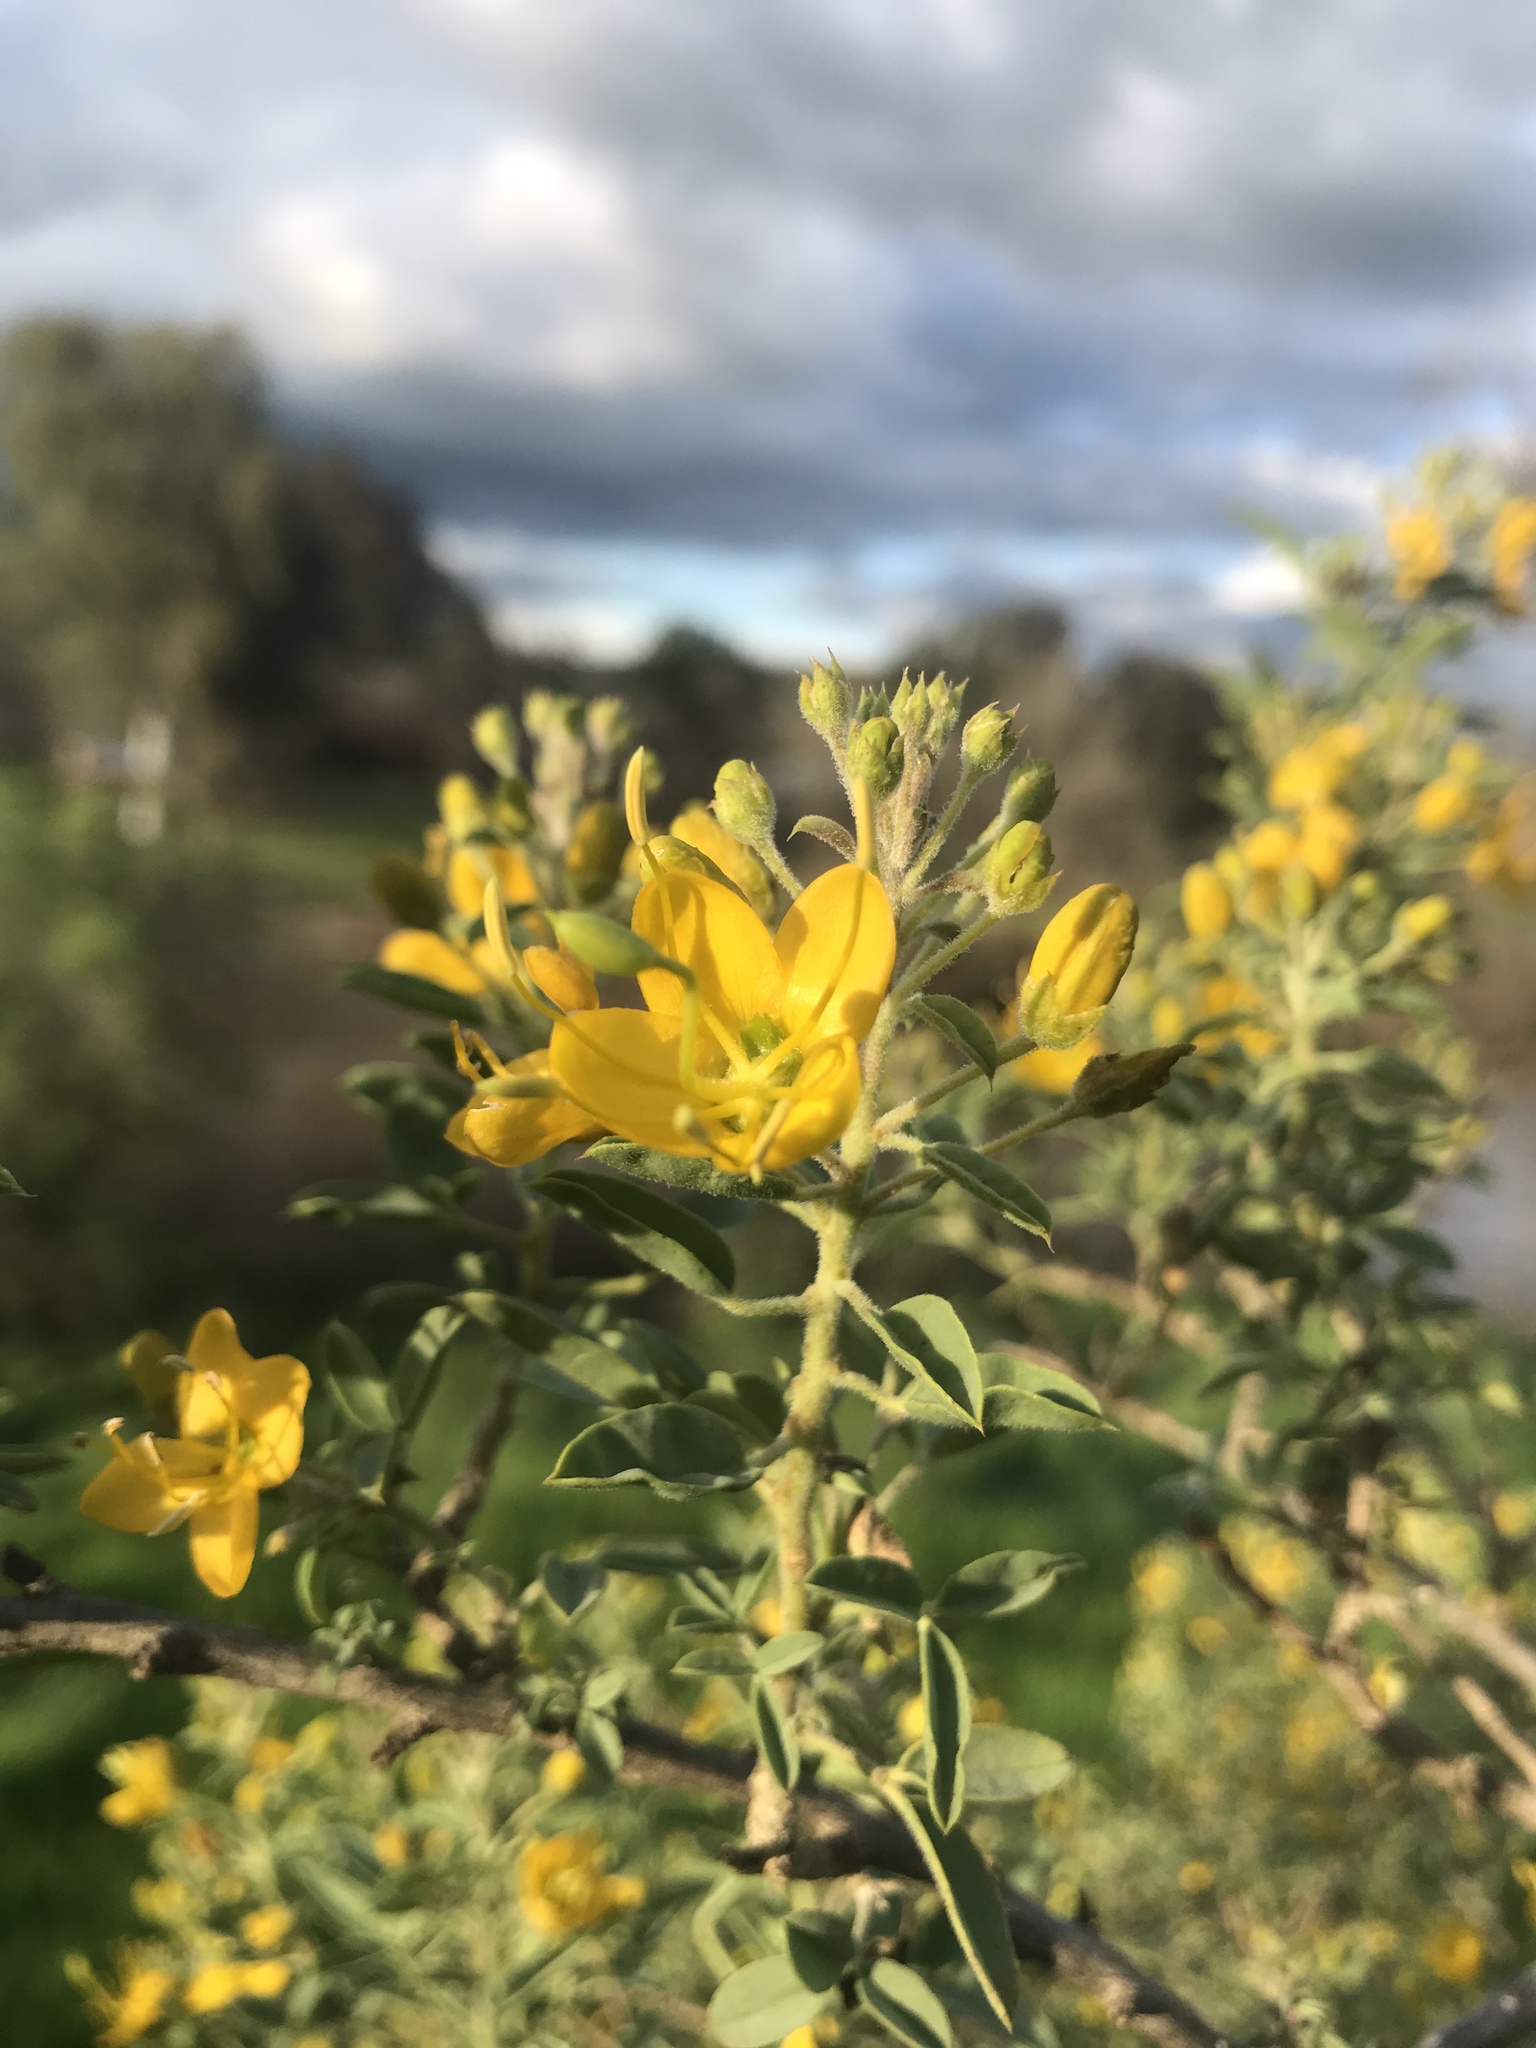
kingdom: Plantae
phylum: Tracheophyta
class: Magnoliopsida
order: Brassicales
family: Cleomaceae
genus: Cleomella
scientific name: Cleomella arborea
